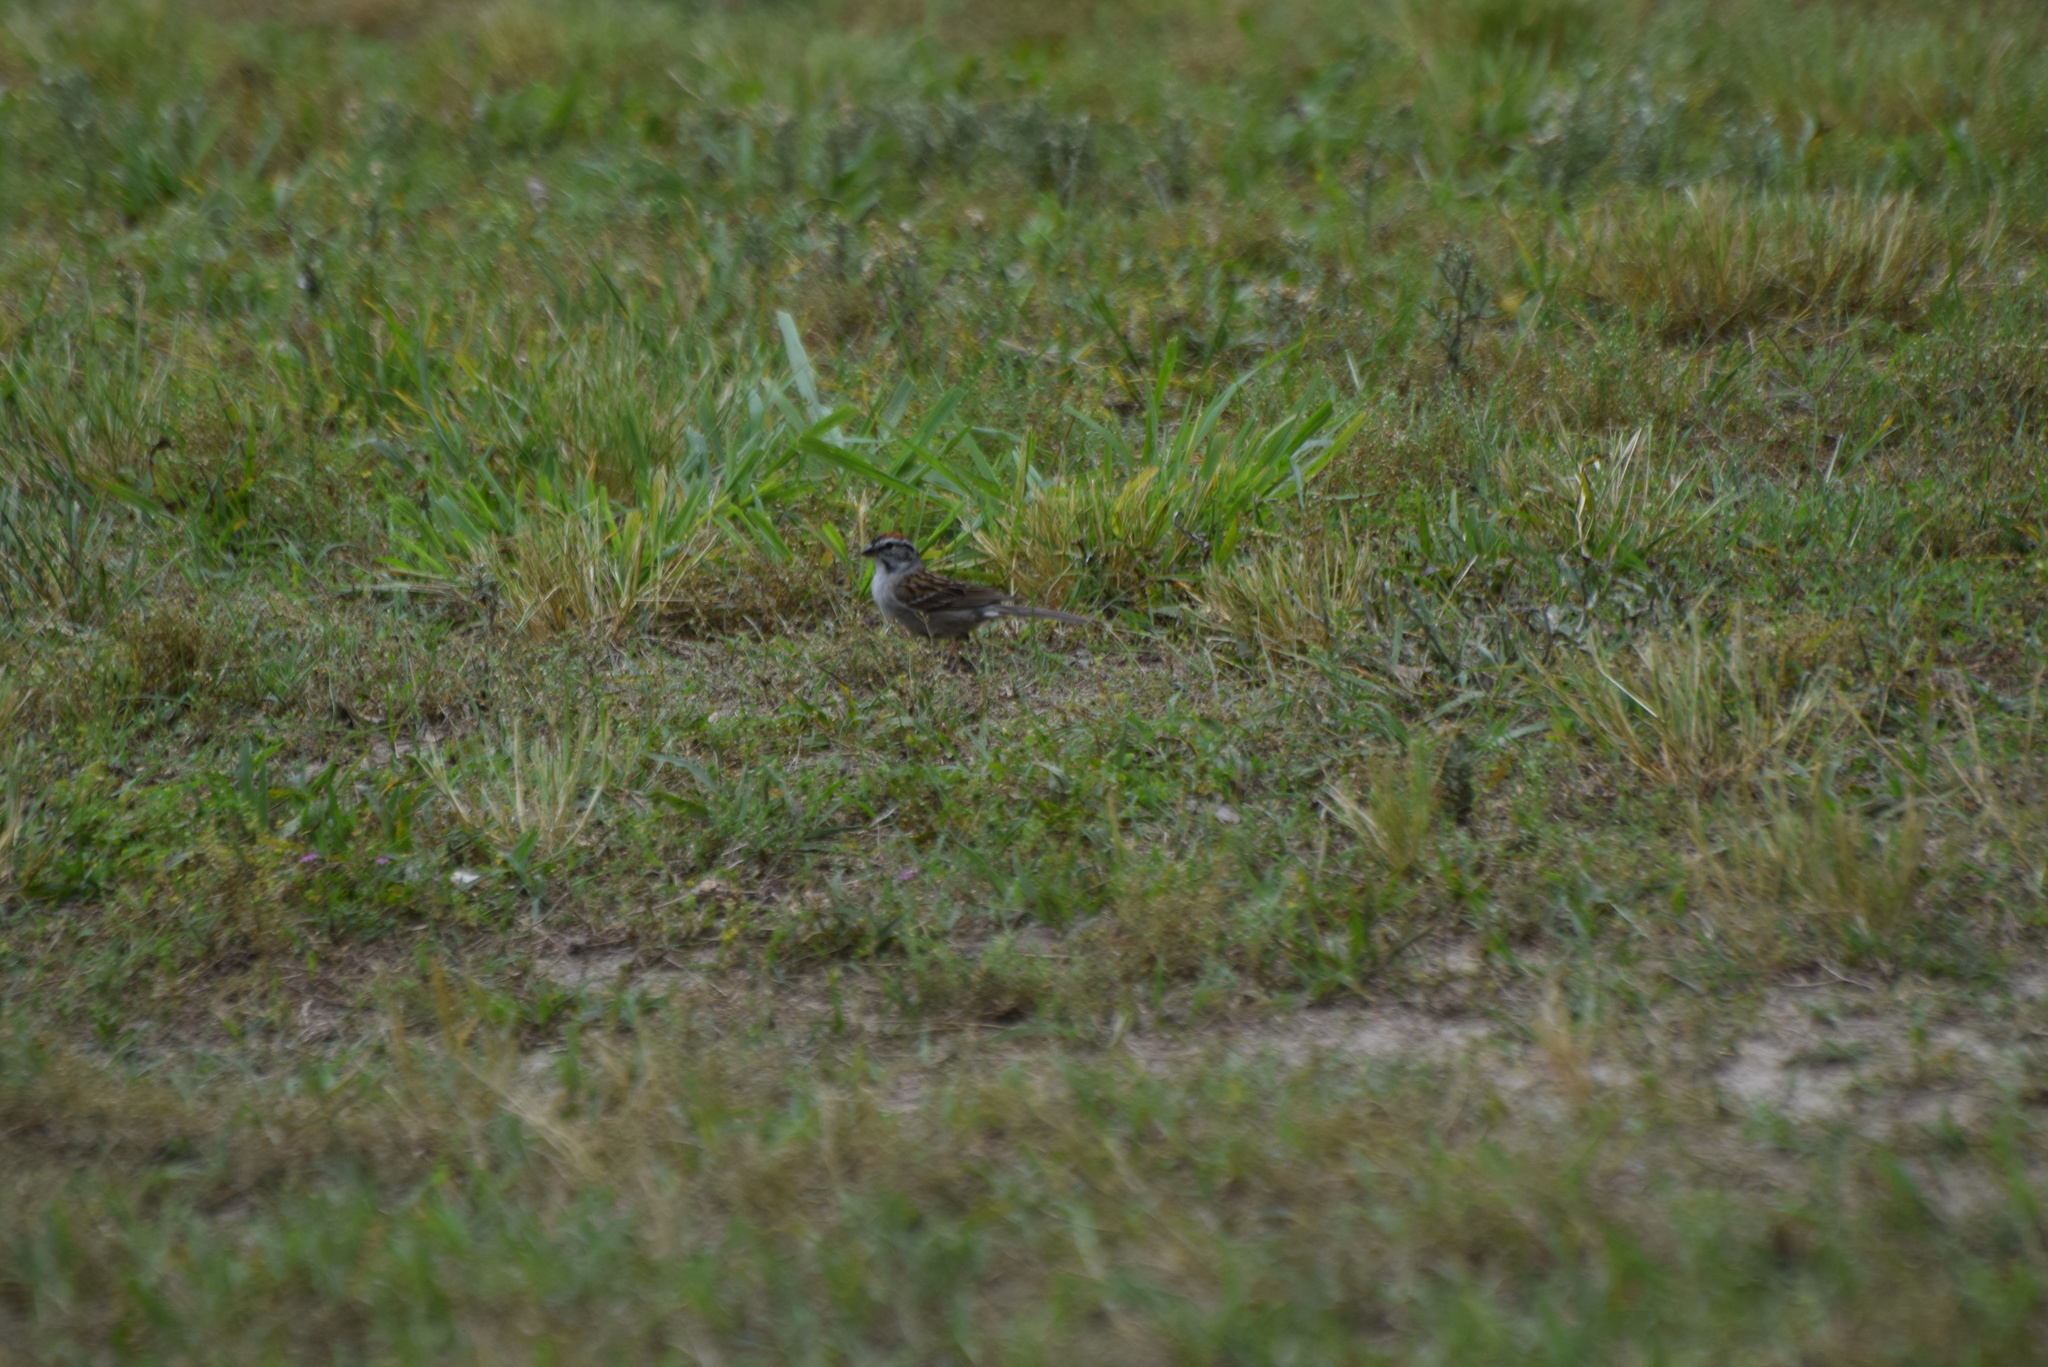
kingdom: Animalia
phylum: Chordata
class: Aves
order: Passeriformes
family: Passerellidae
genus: Spizella
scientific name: Spizella passerina
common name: Chipping sparrow
